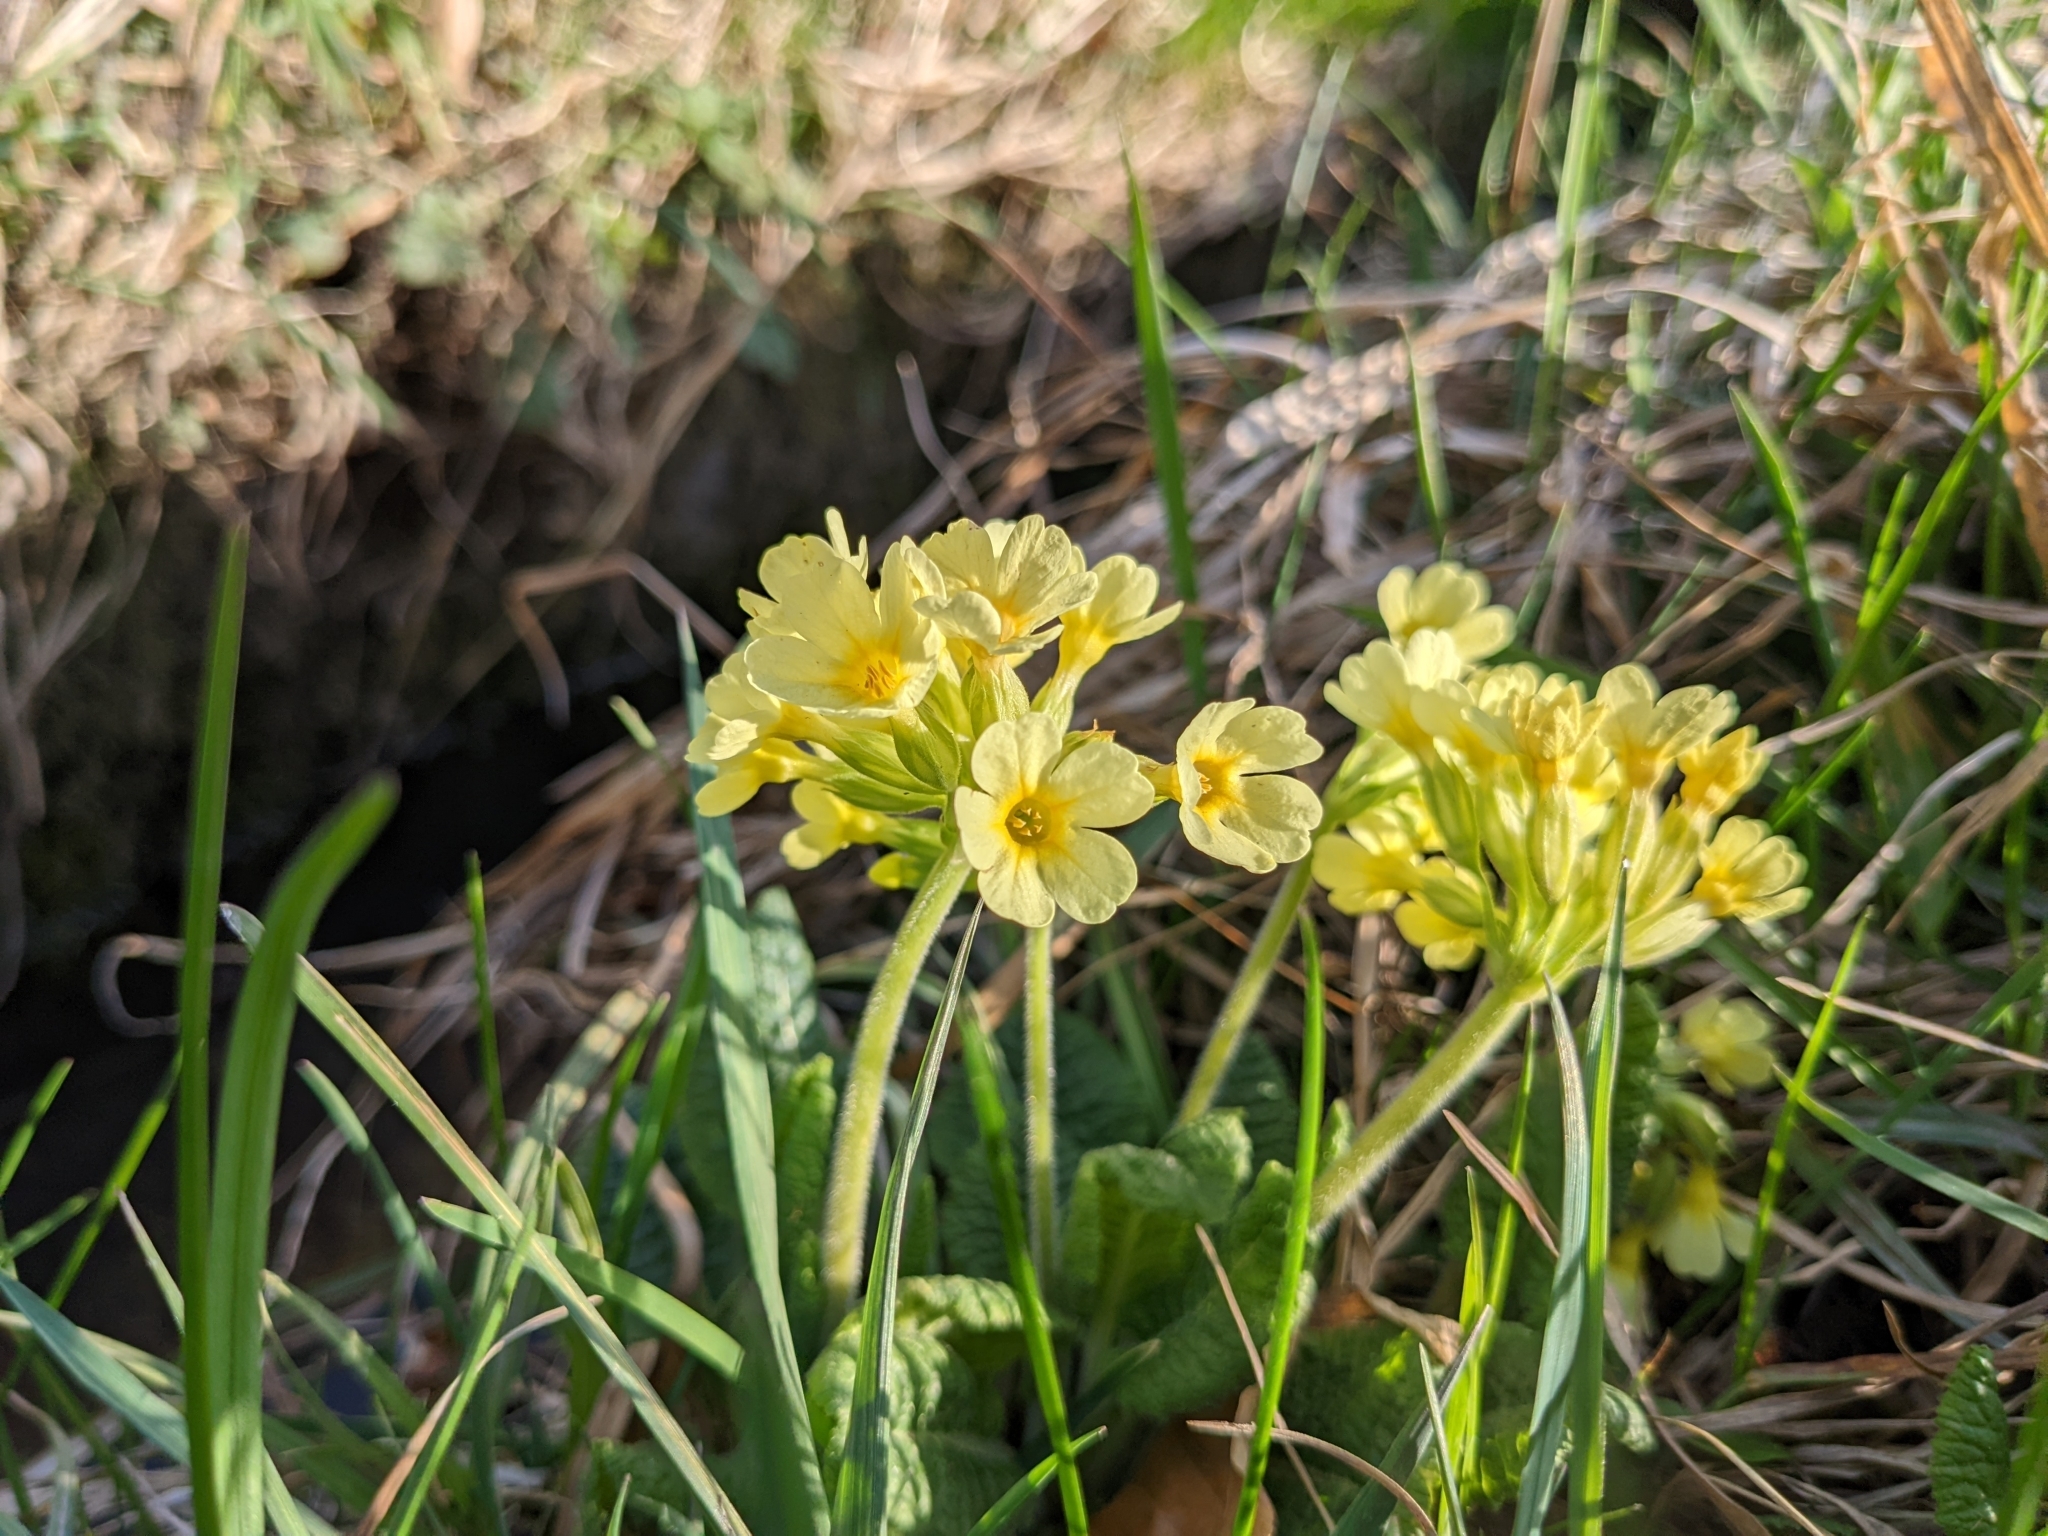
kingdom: Plantae
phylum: Tracheophyta
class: Magnoliopsida
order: Ericales
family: Primulaceae
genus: Primula
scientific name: Primula elatior
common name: Oxlip
